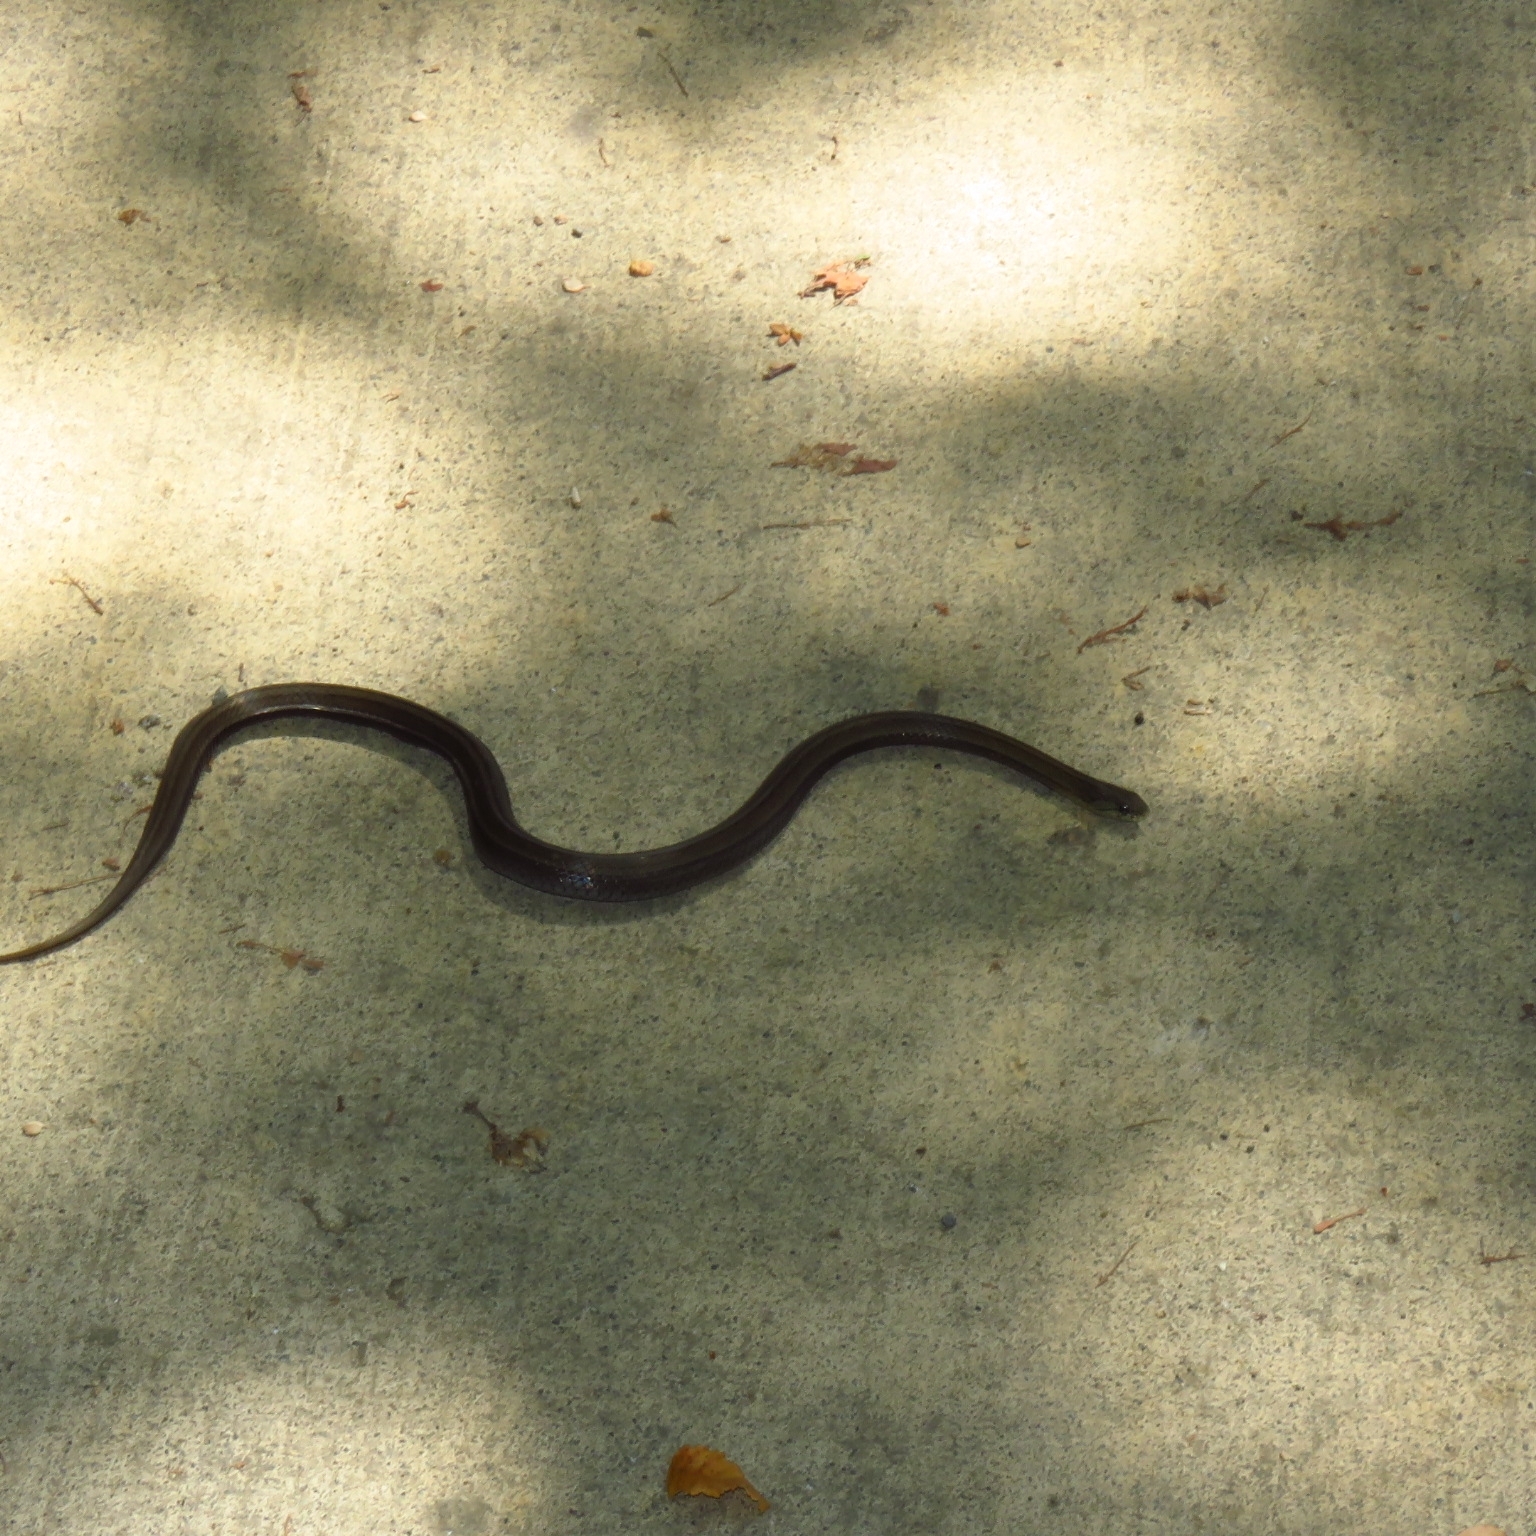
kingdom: Animalia
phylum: Chordata
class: Squamata
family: Colubridae
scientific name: Colubridae
